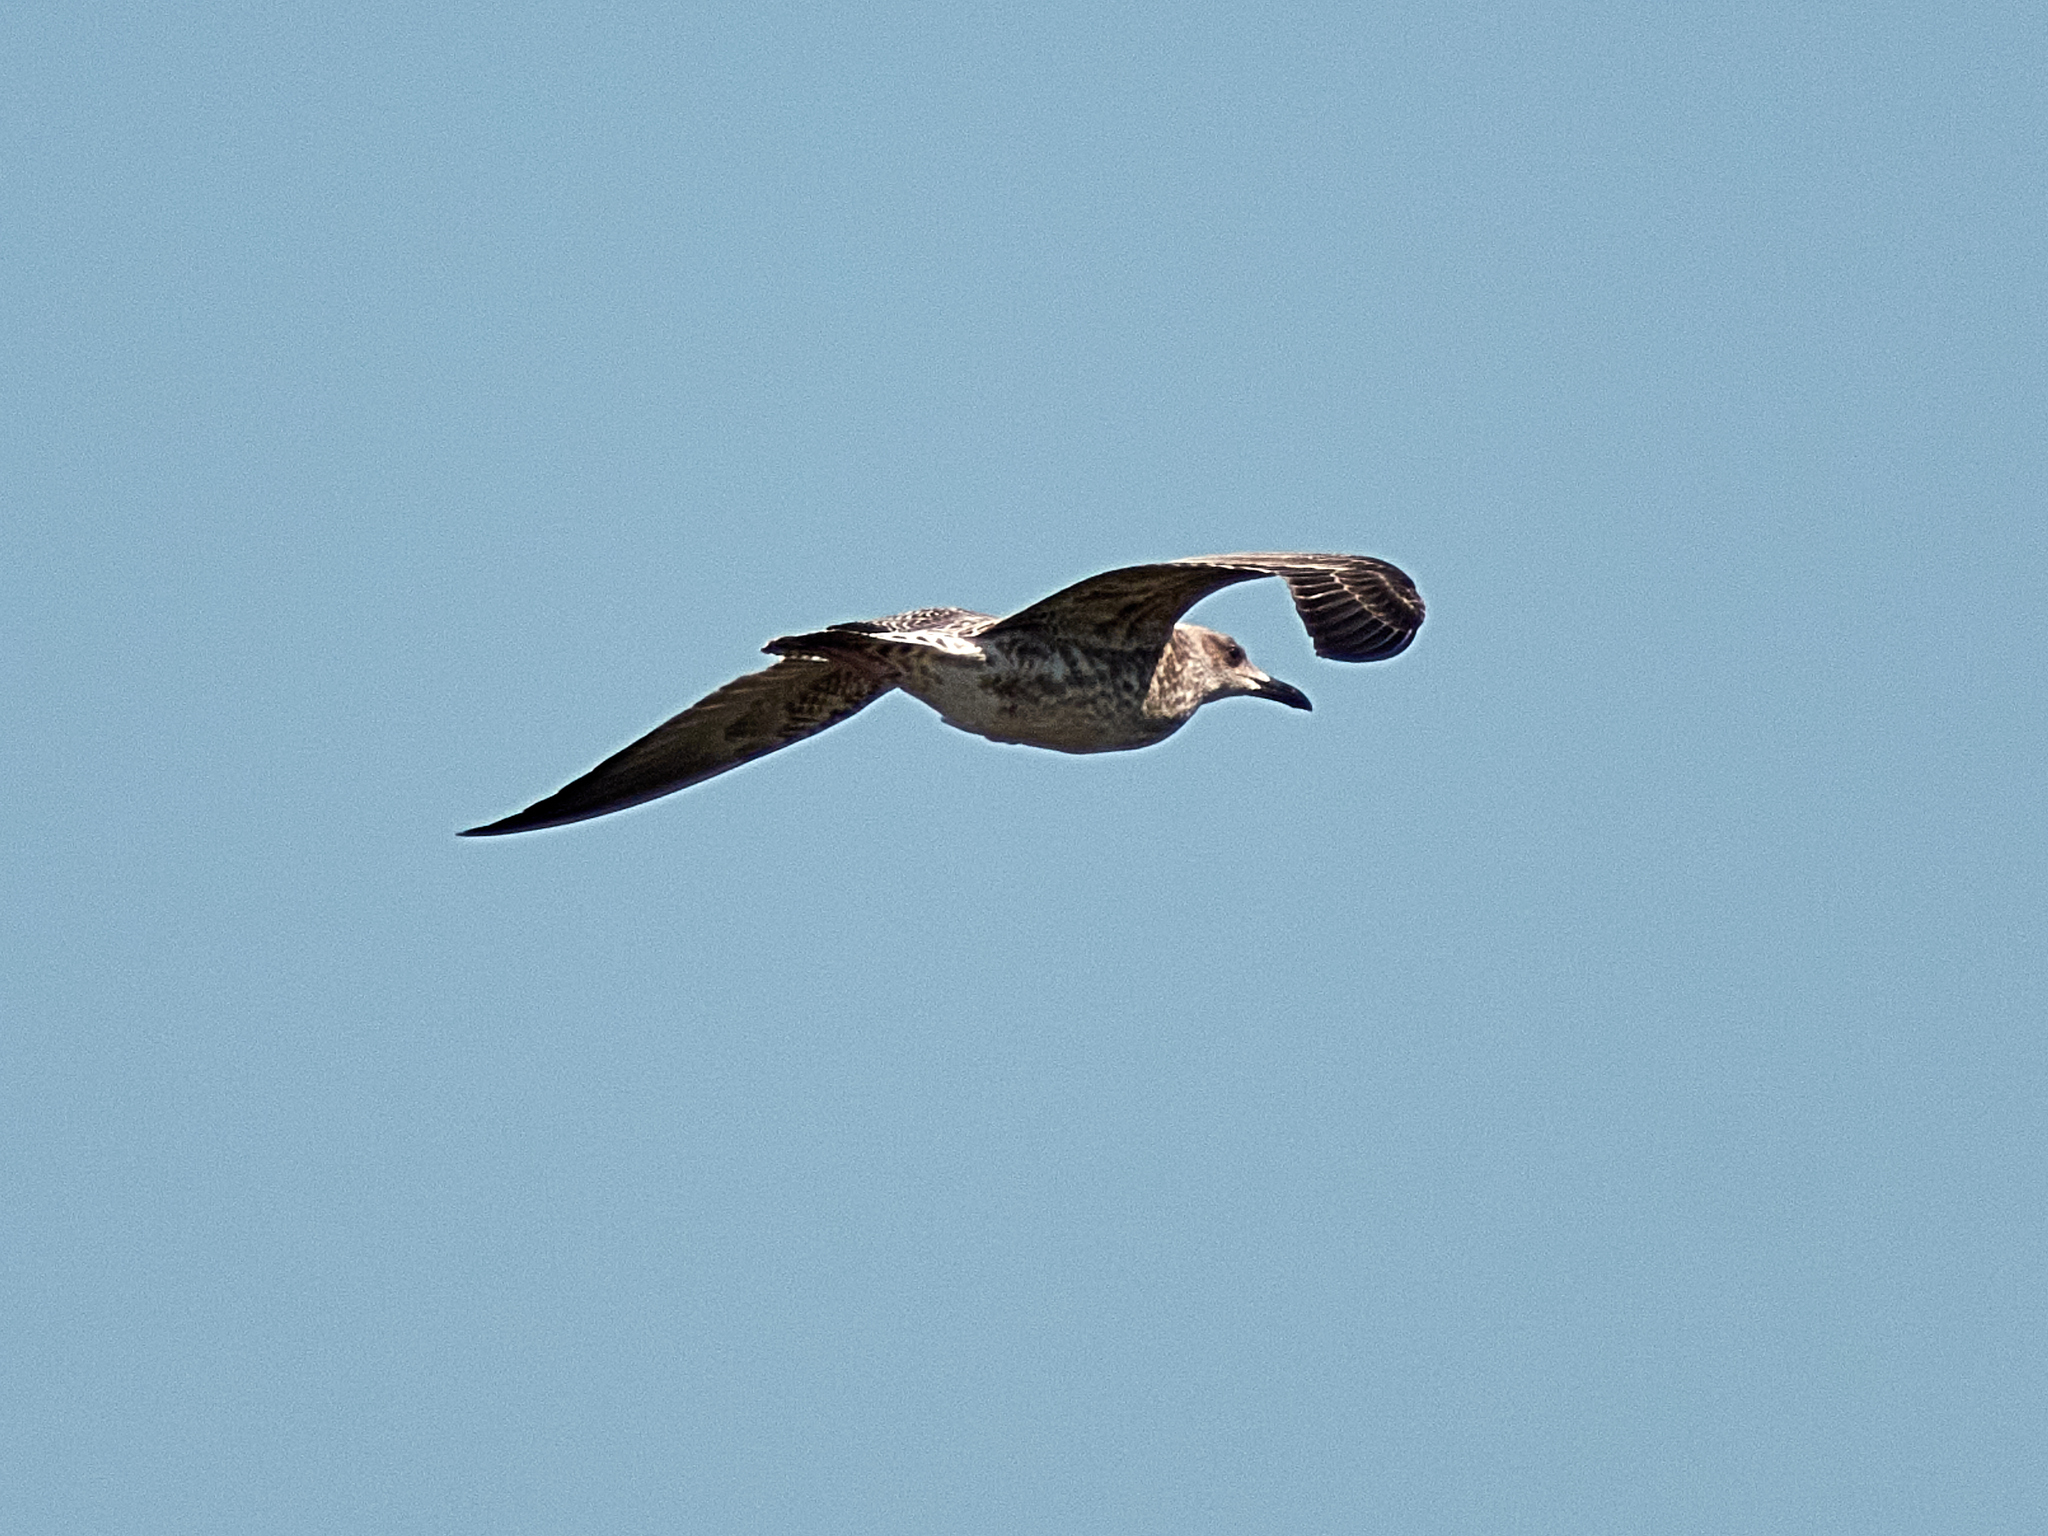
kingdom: Animalia
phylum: Chordata
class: Aves
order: Charadriiformes
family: Laridae
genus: Larus
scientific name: Larus fuscus
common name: Lesser black-backed gull
